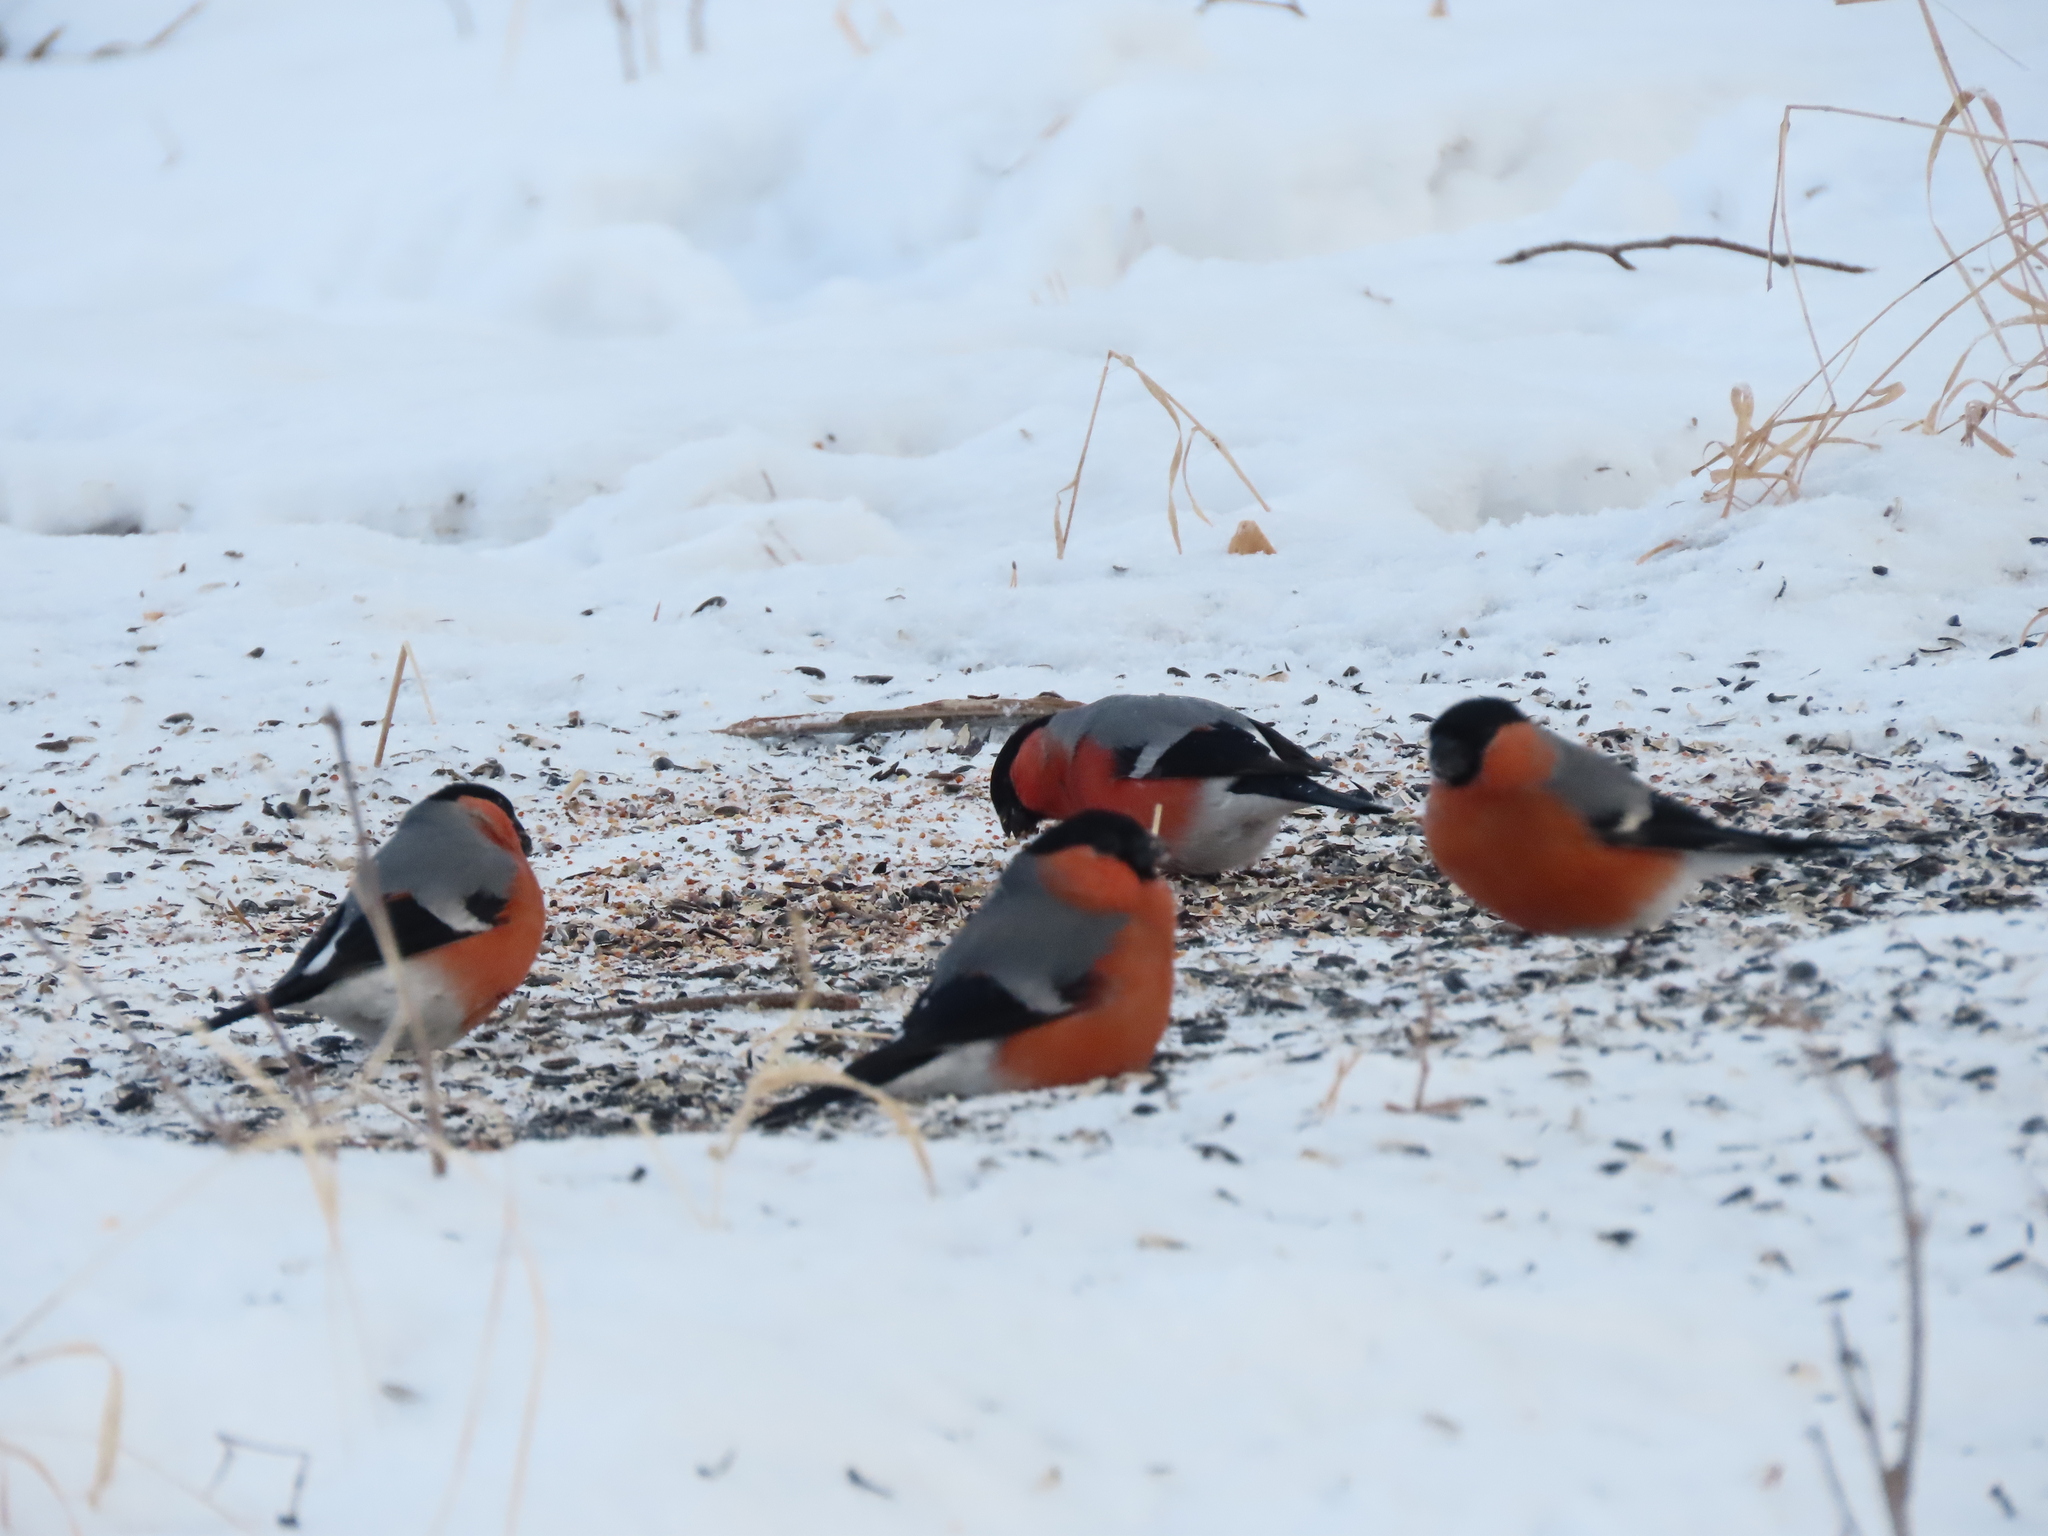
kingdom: Animalia
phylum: Chordata
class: Aves
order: Passeriformes
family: Fringillidae
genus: Pyrrhula
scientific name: Pyrrhula pyrrhula
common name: Eurasian bullfinch
